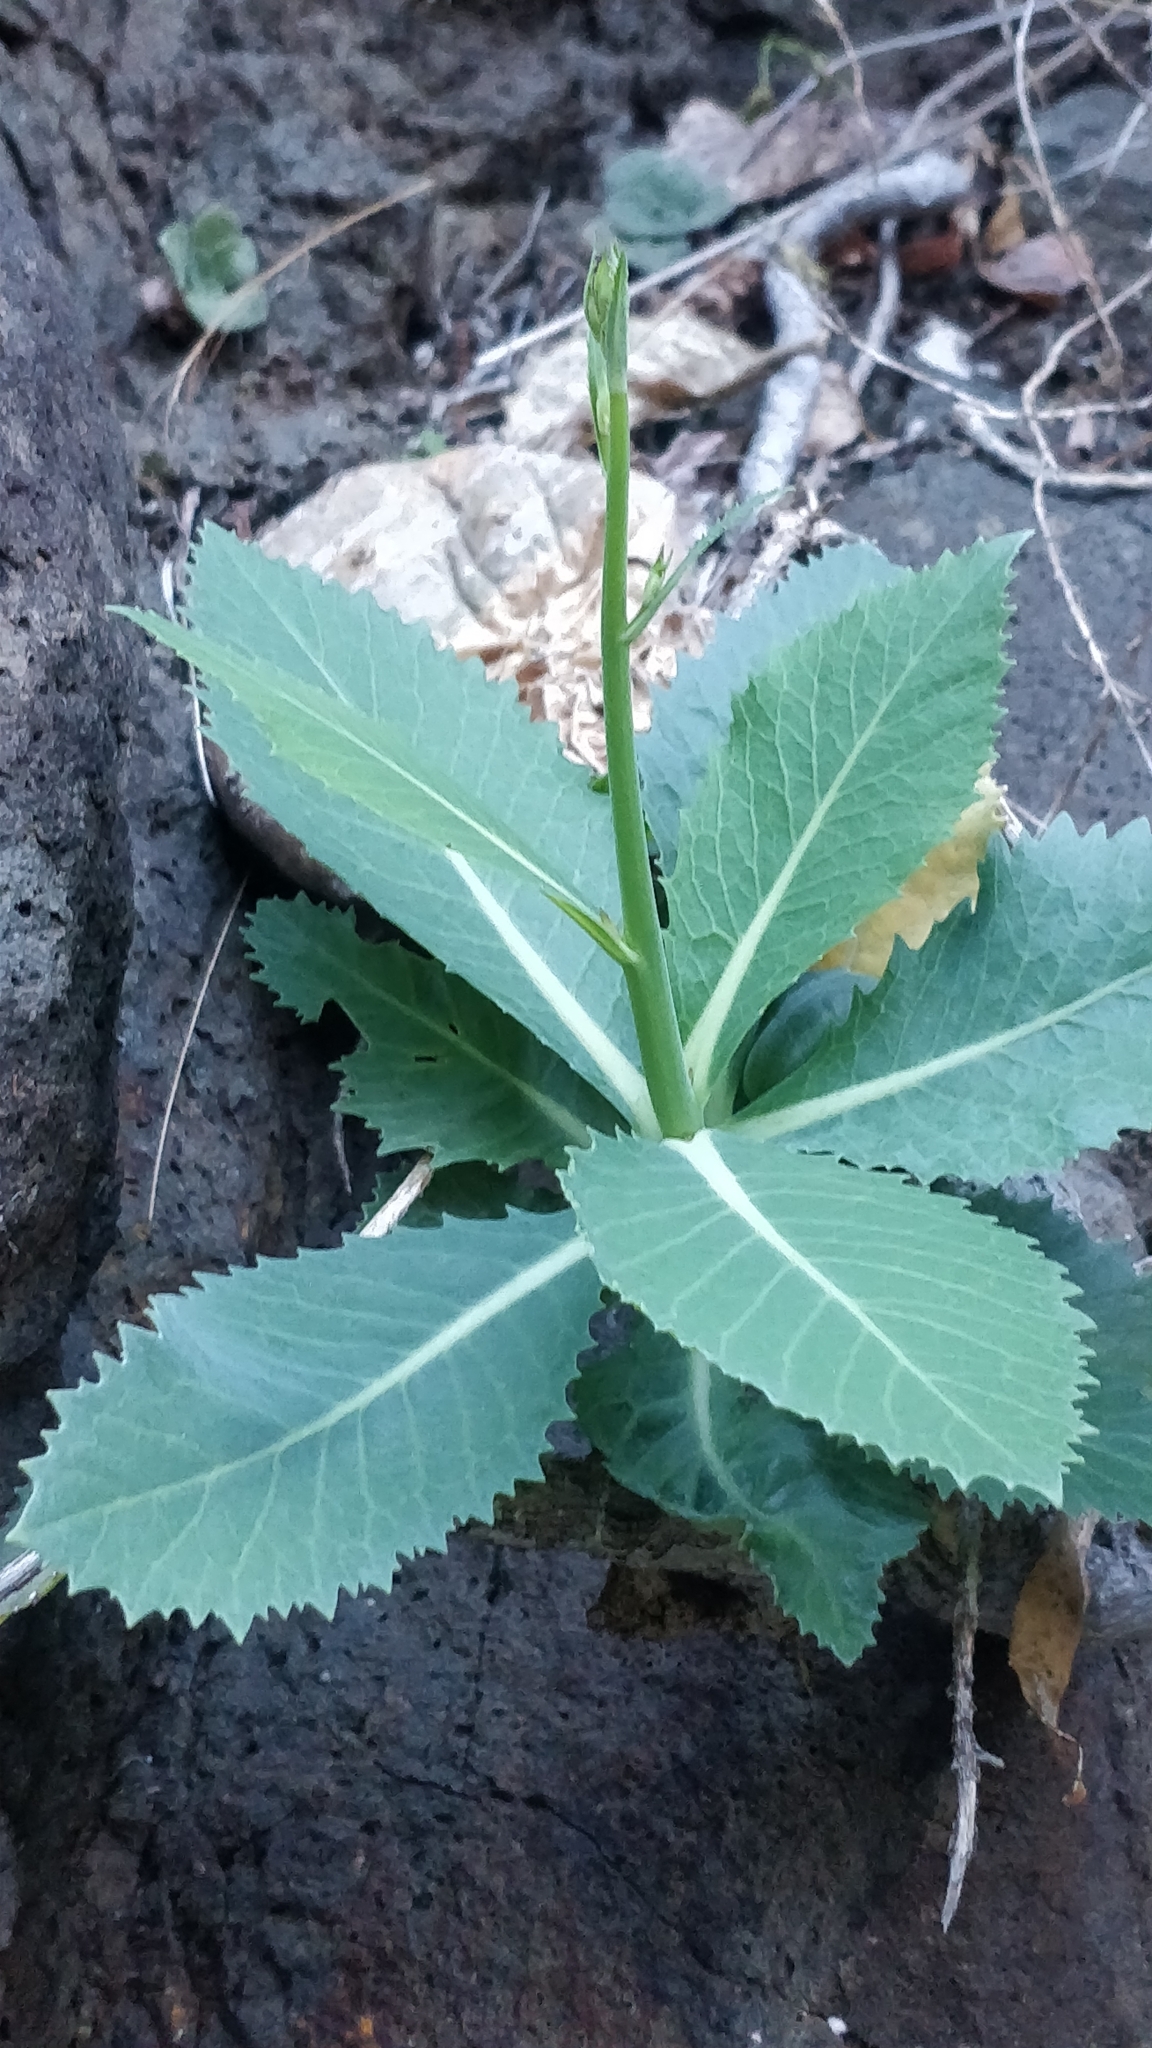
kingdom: Plantae
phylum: Tracheophyta
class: Magnoliopsida
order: Brassicales
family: Brassicaceae
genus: Crambe
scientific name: Crambe laevigata
